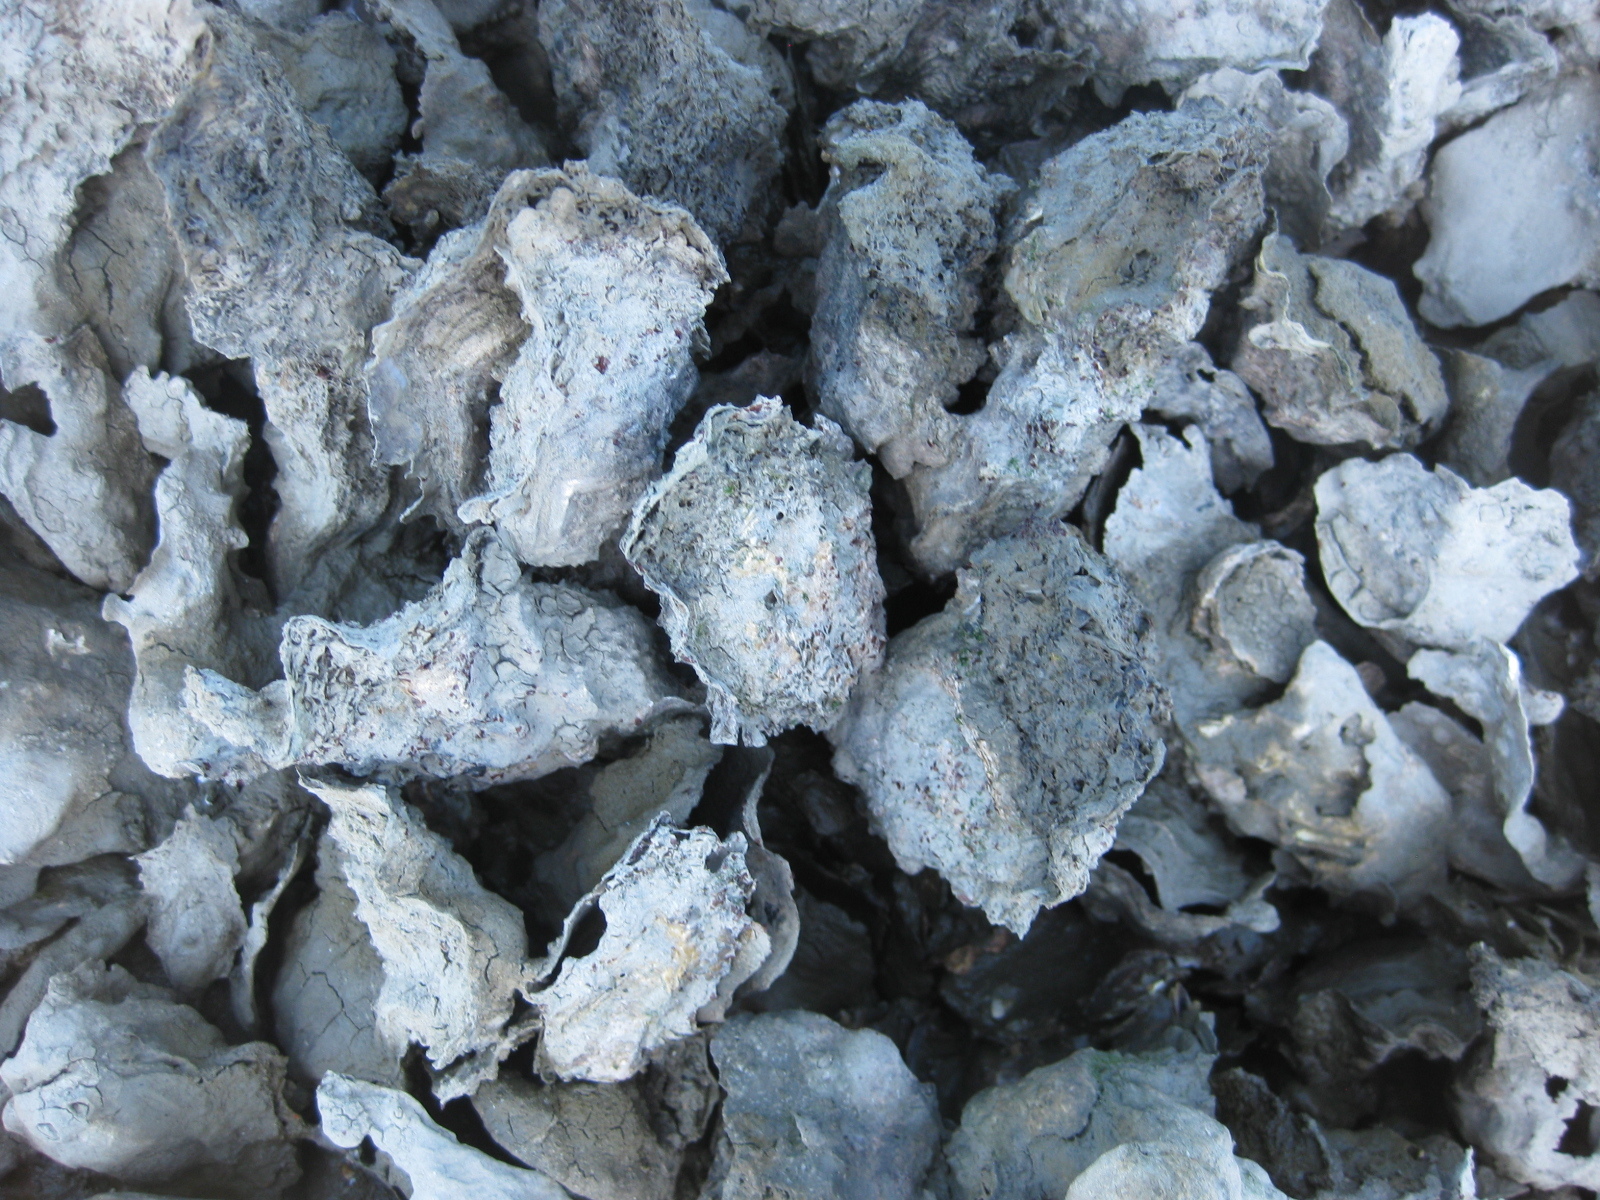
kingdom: Animalia
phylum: Mollusca
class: Bivalvia
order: Ostreida
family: Ostreidae
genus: Magallana
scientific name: Magallana gigas
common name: Pacific oyster
